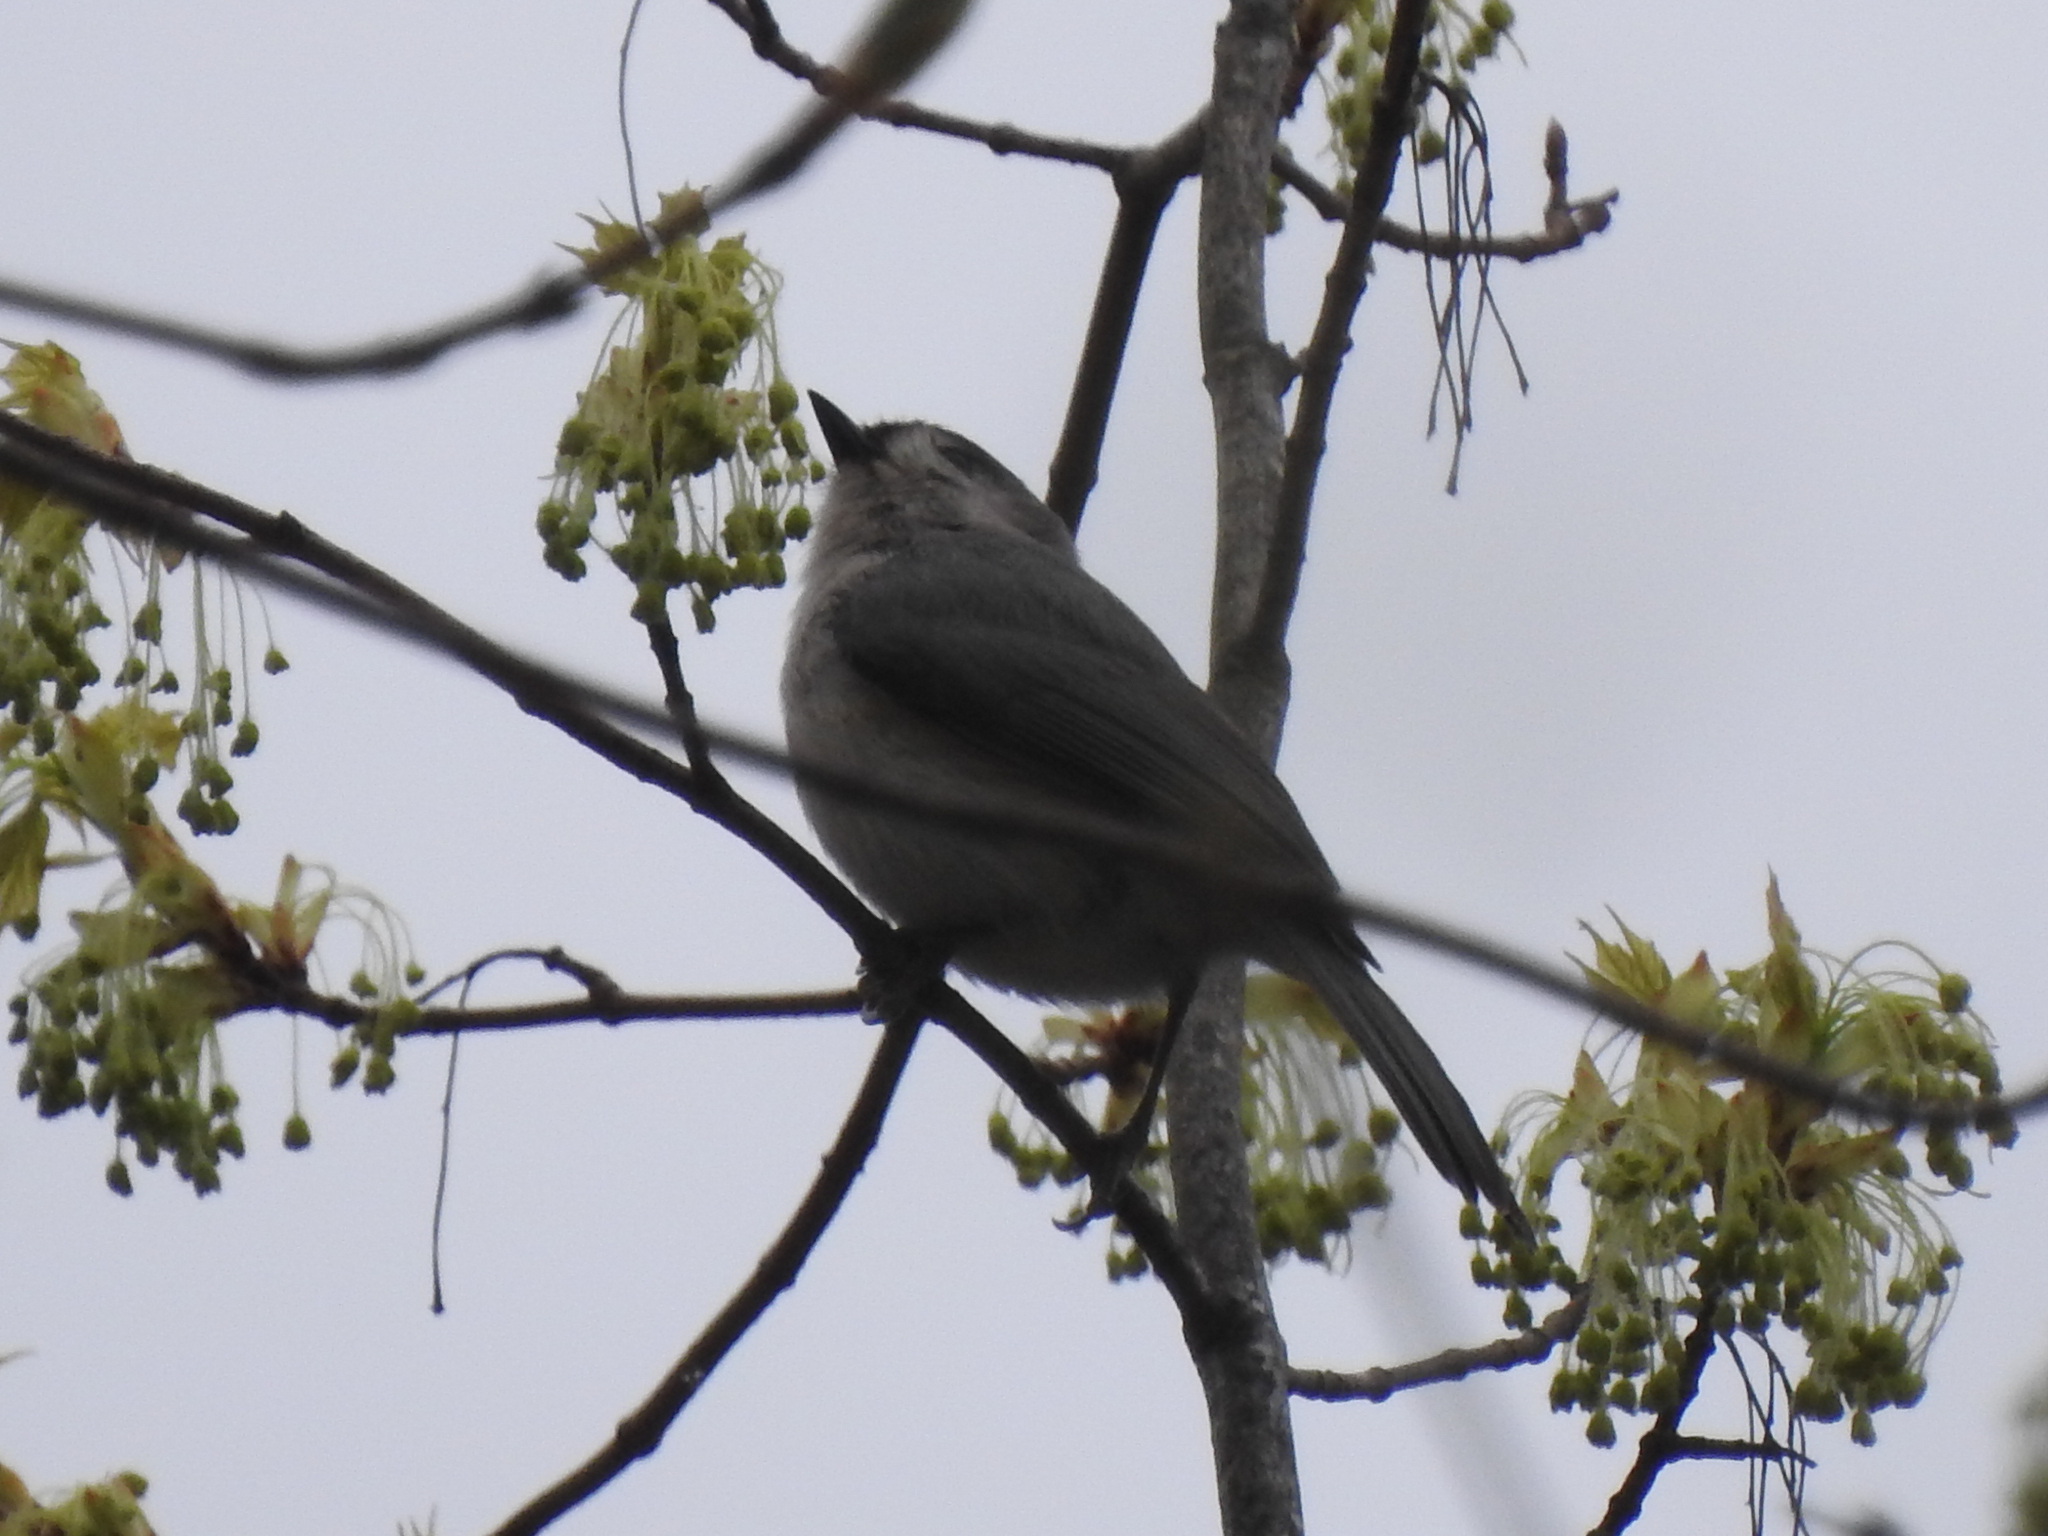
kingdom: Animalia
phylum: Chordata
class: Aves
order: Passeriformes
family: Paridae
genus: Baeolophus
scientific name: Baeolophus bicolor
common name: Tufted titmouse
